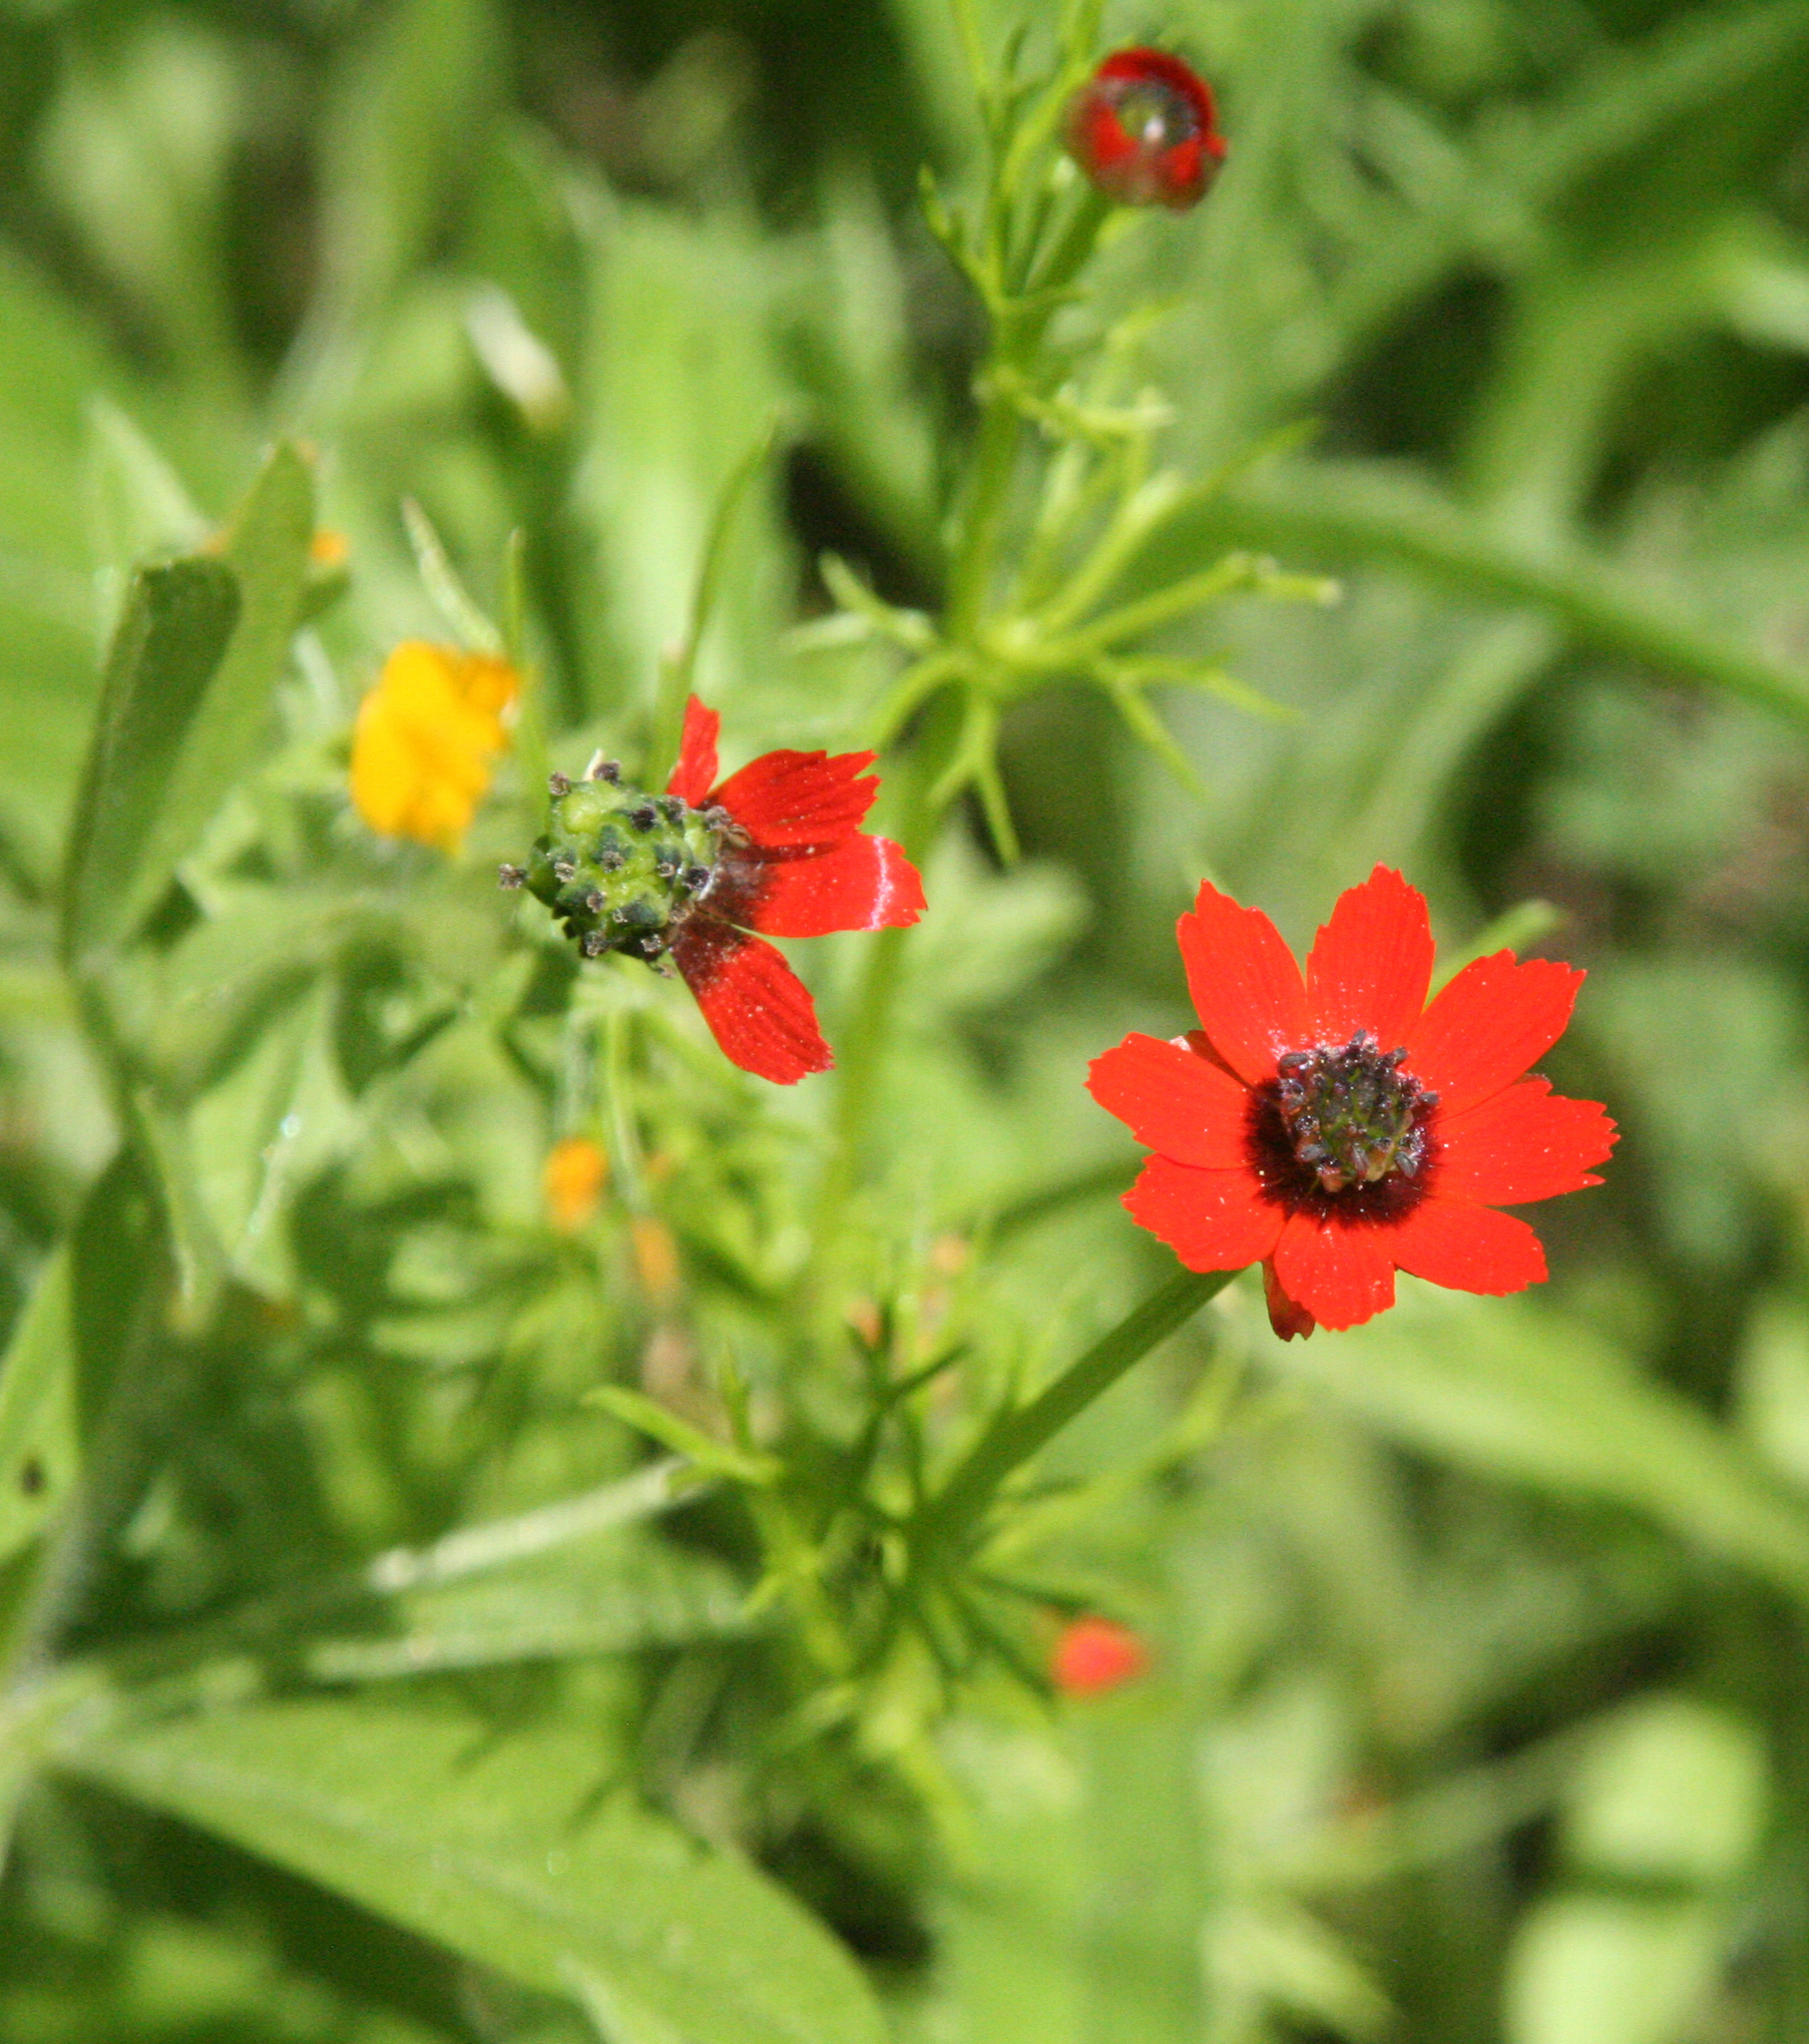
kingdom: Plantae
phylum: Tracheophyta
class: Magnoliopsida
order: Ranunculales
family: Ranunculaceae
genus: Adonis
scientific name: Adonis microcarpa
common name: Pheasant's-eye
